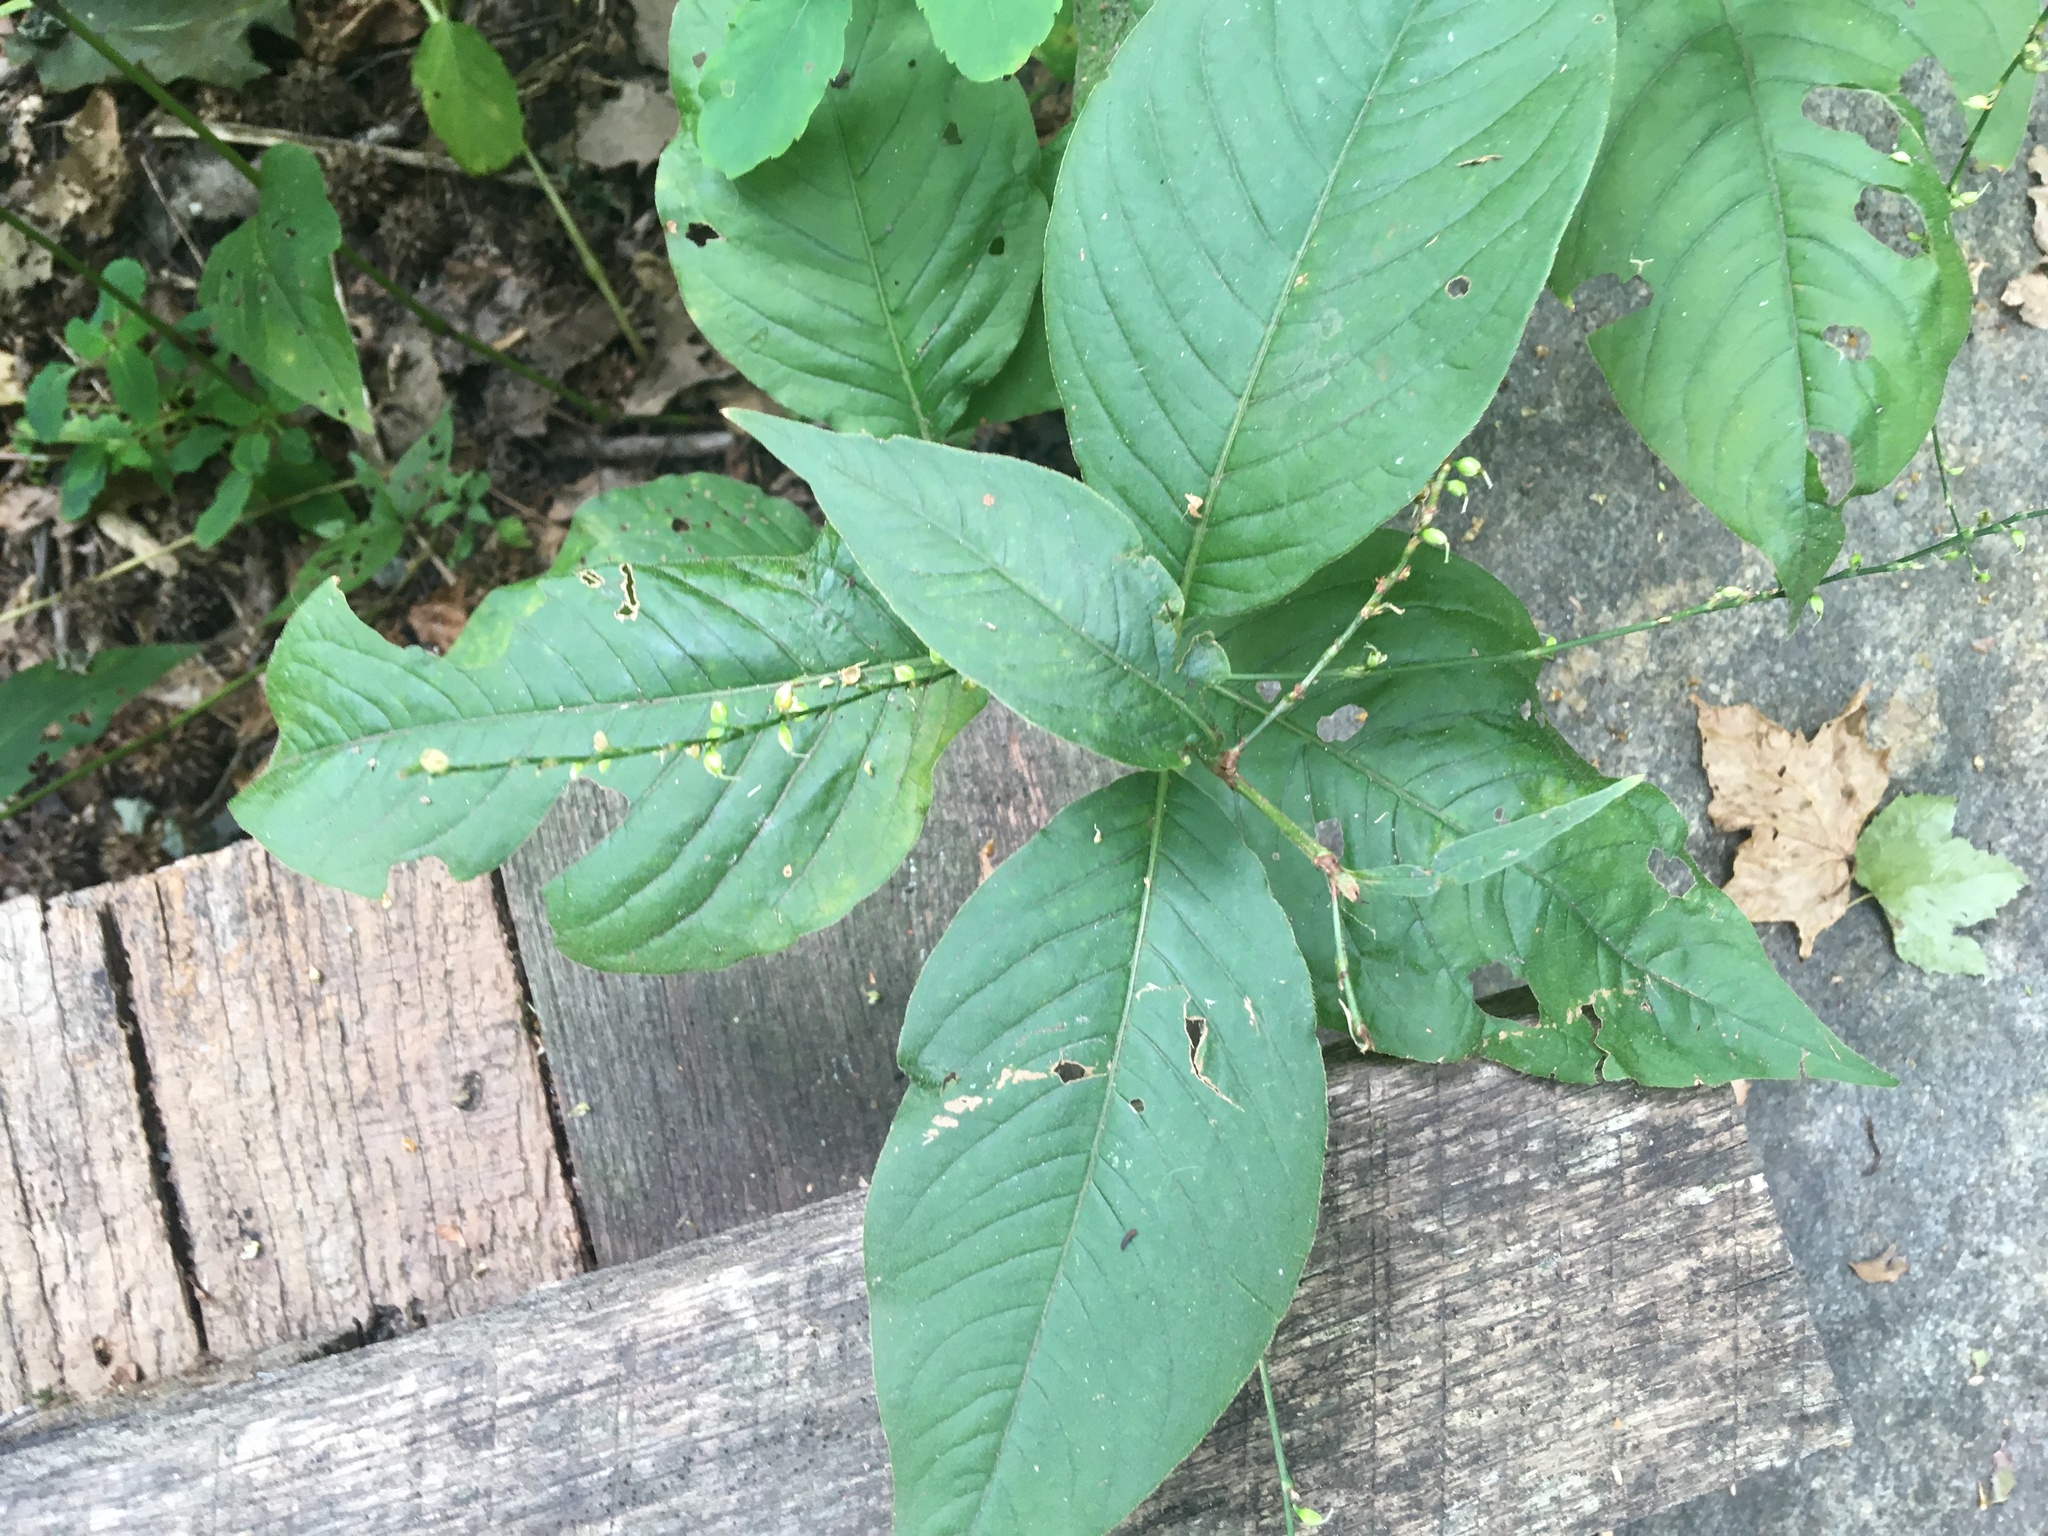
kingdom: Plantae
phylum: Tracheophyta
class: Magnoliopsida
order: Caryophyllales
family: Polygonaceae
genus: Persicaria
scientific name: Persicaria virginiana
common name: Jumpseed
